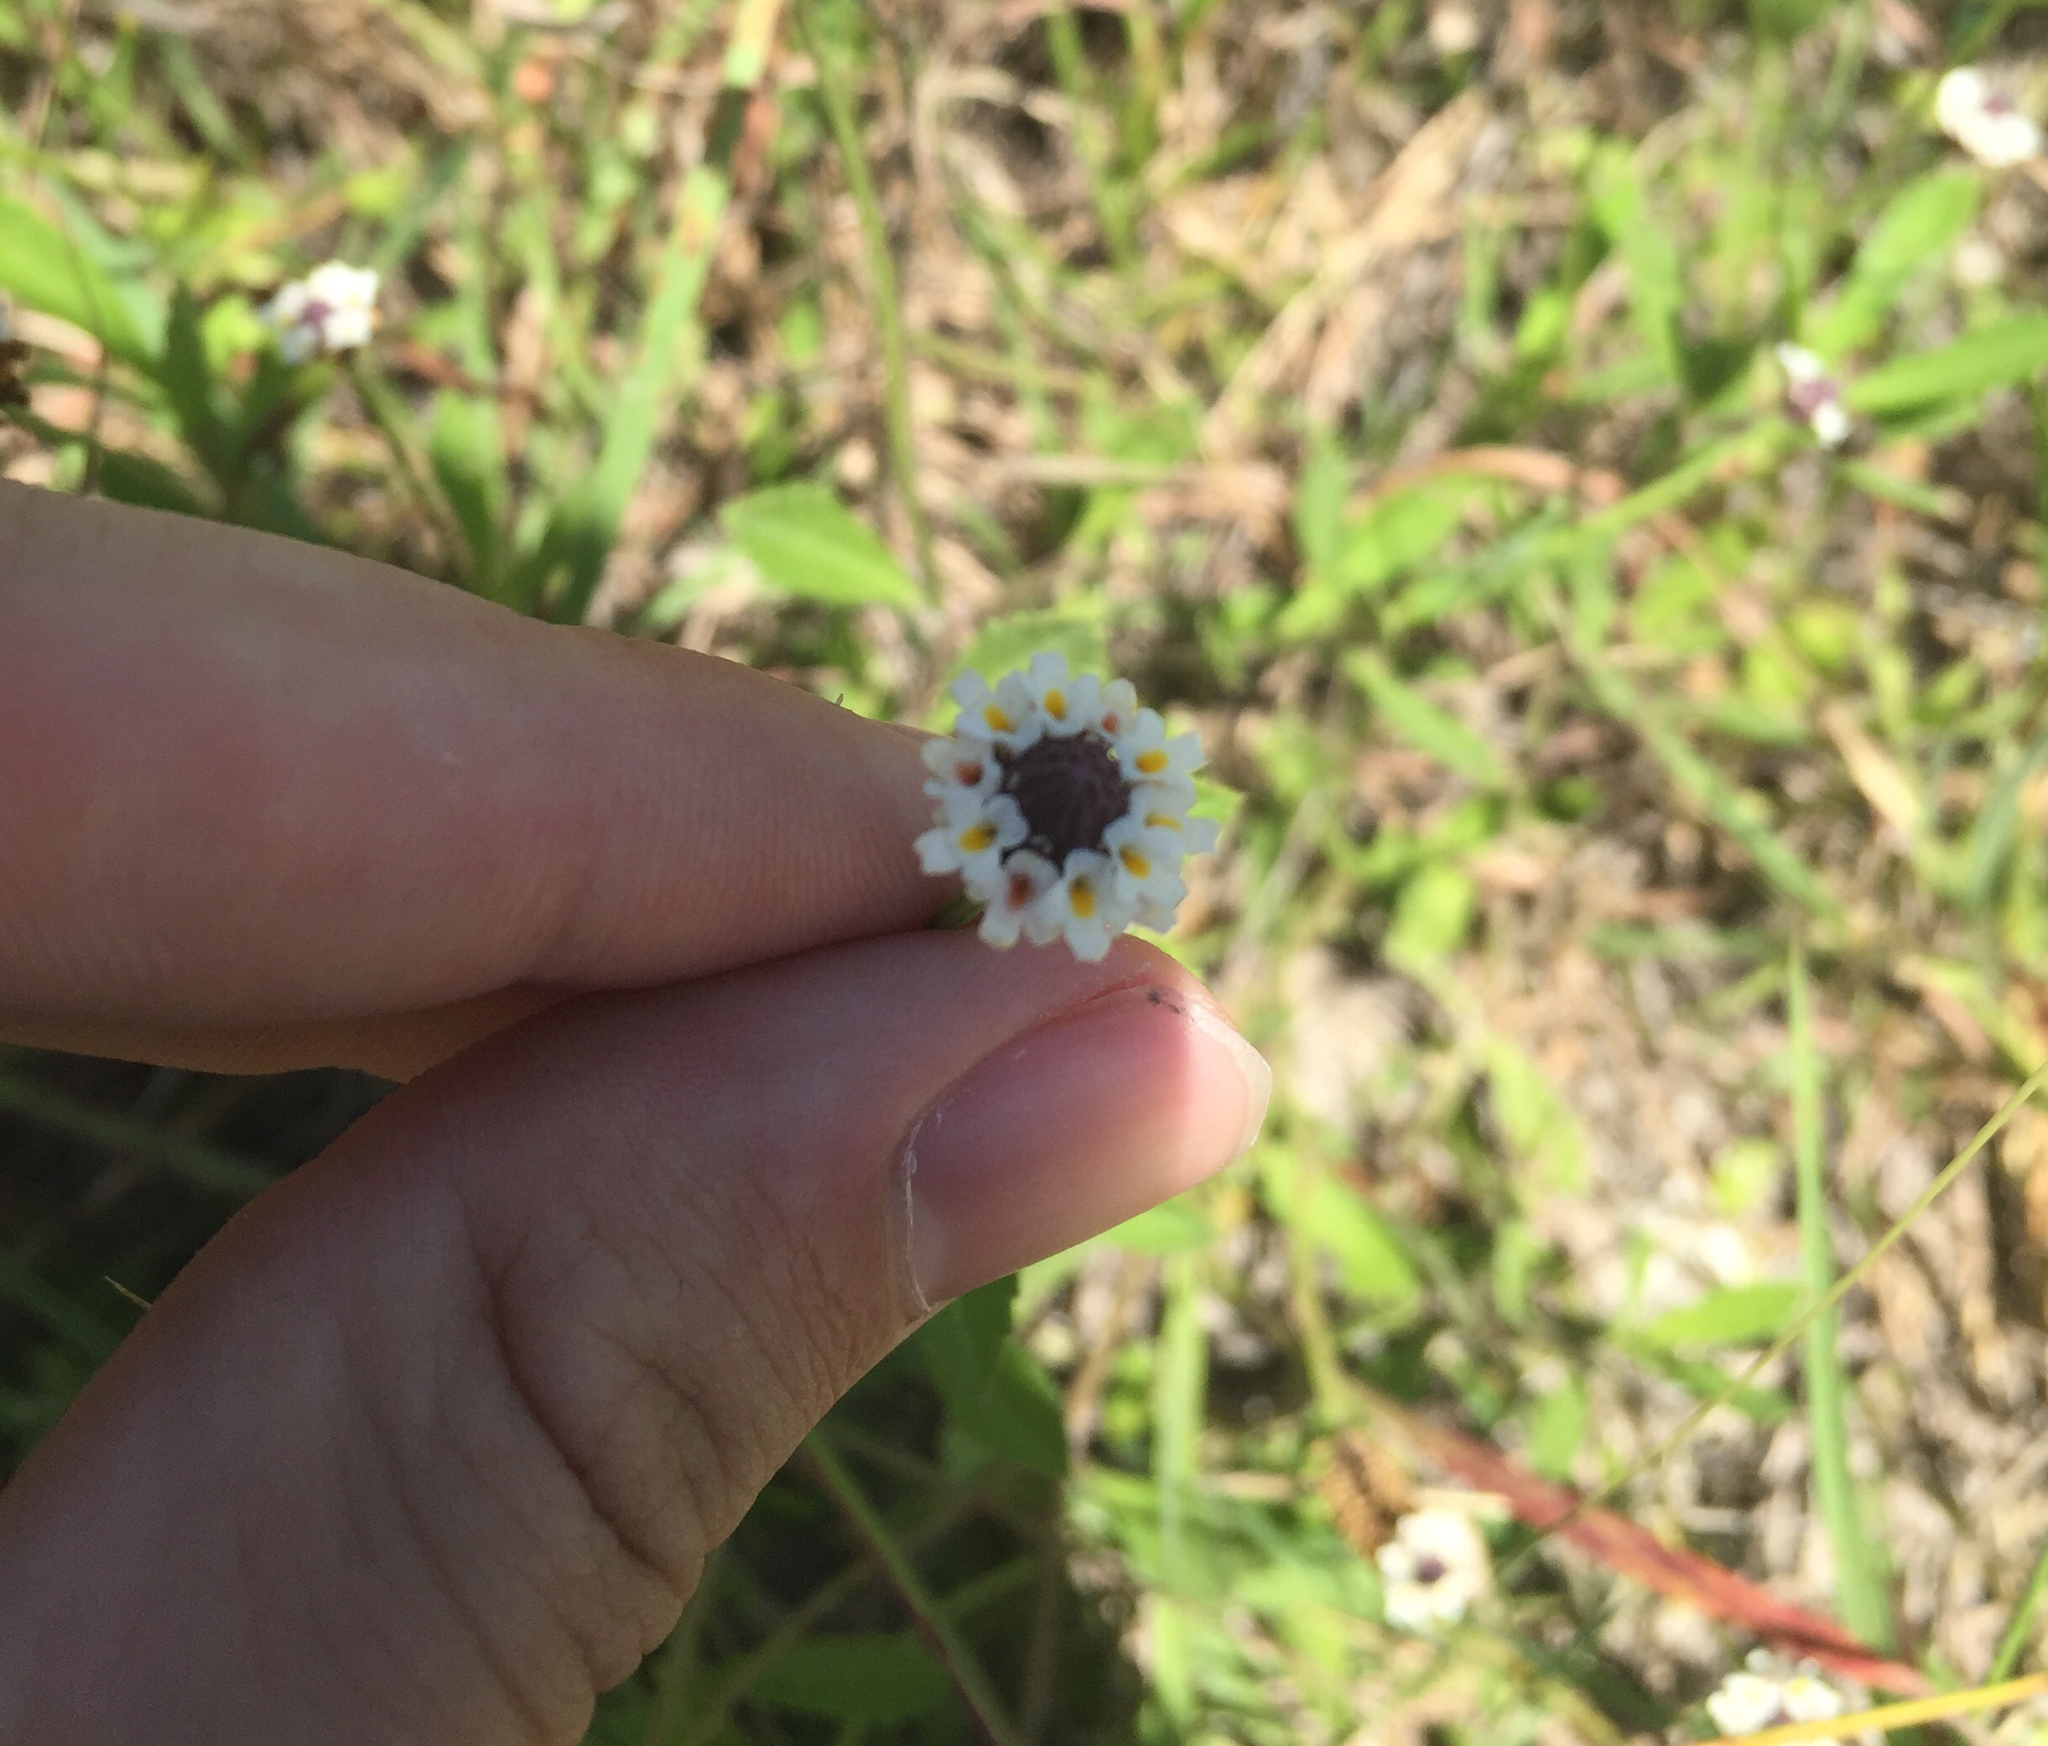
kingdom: Plantae
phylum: Tracheophyta
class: Magnoliopsida
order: Lamiales
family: Verbenaceae
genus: Phyla
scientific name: Phyla nodiflora
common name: Frogfruit
